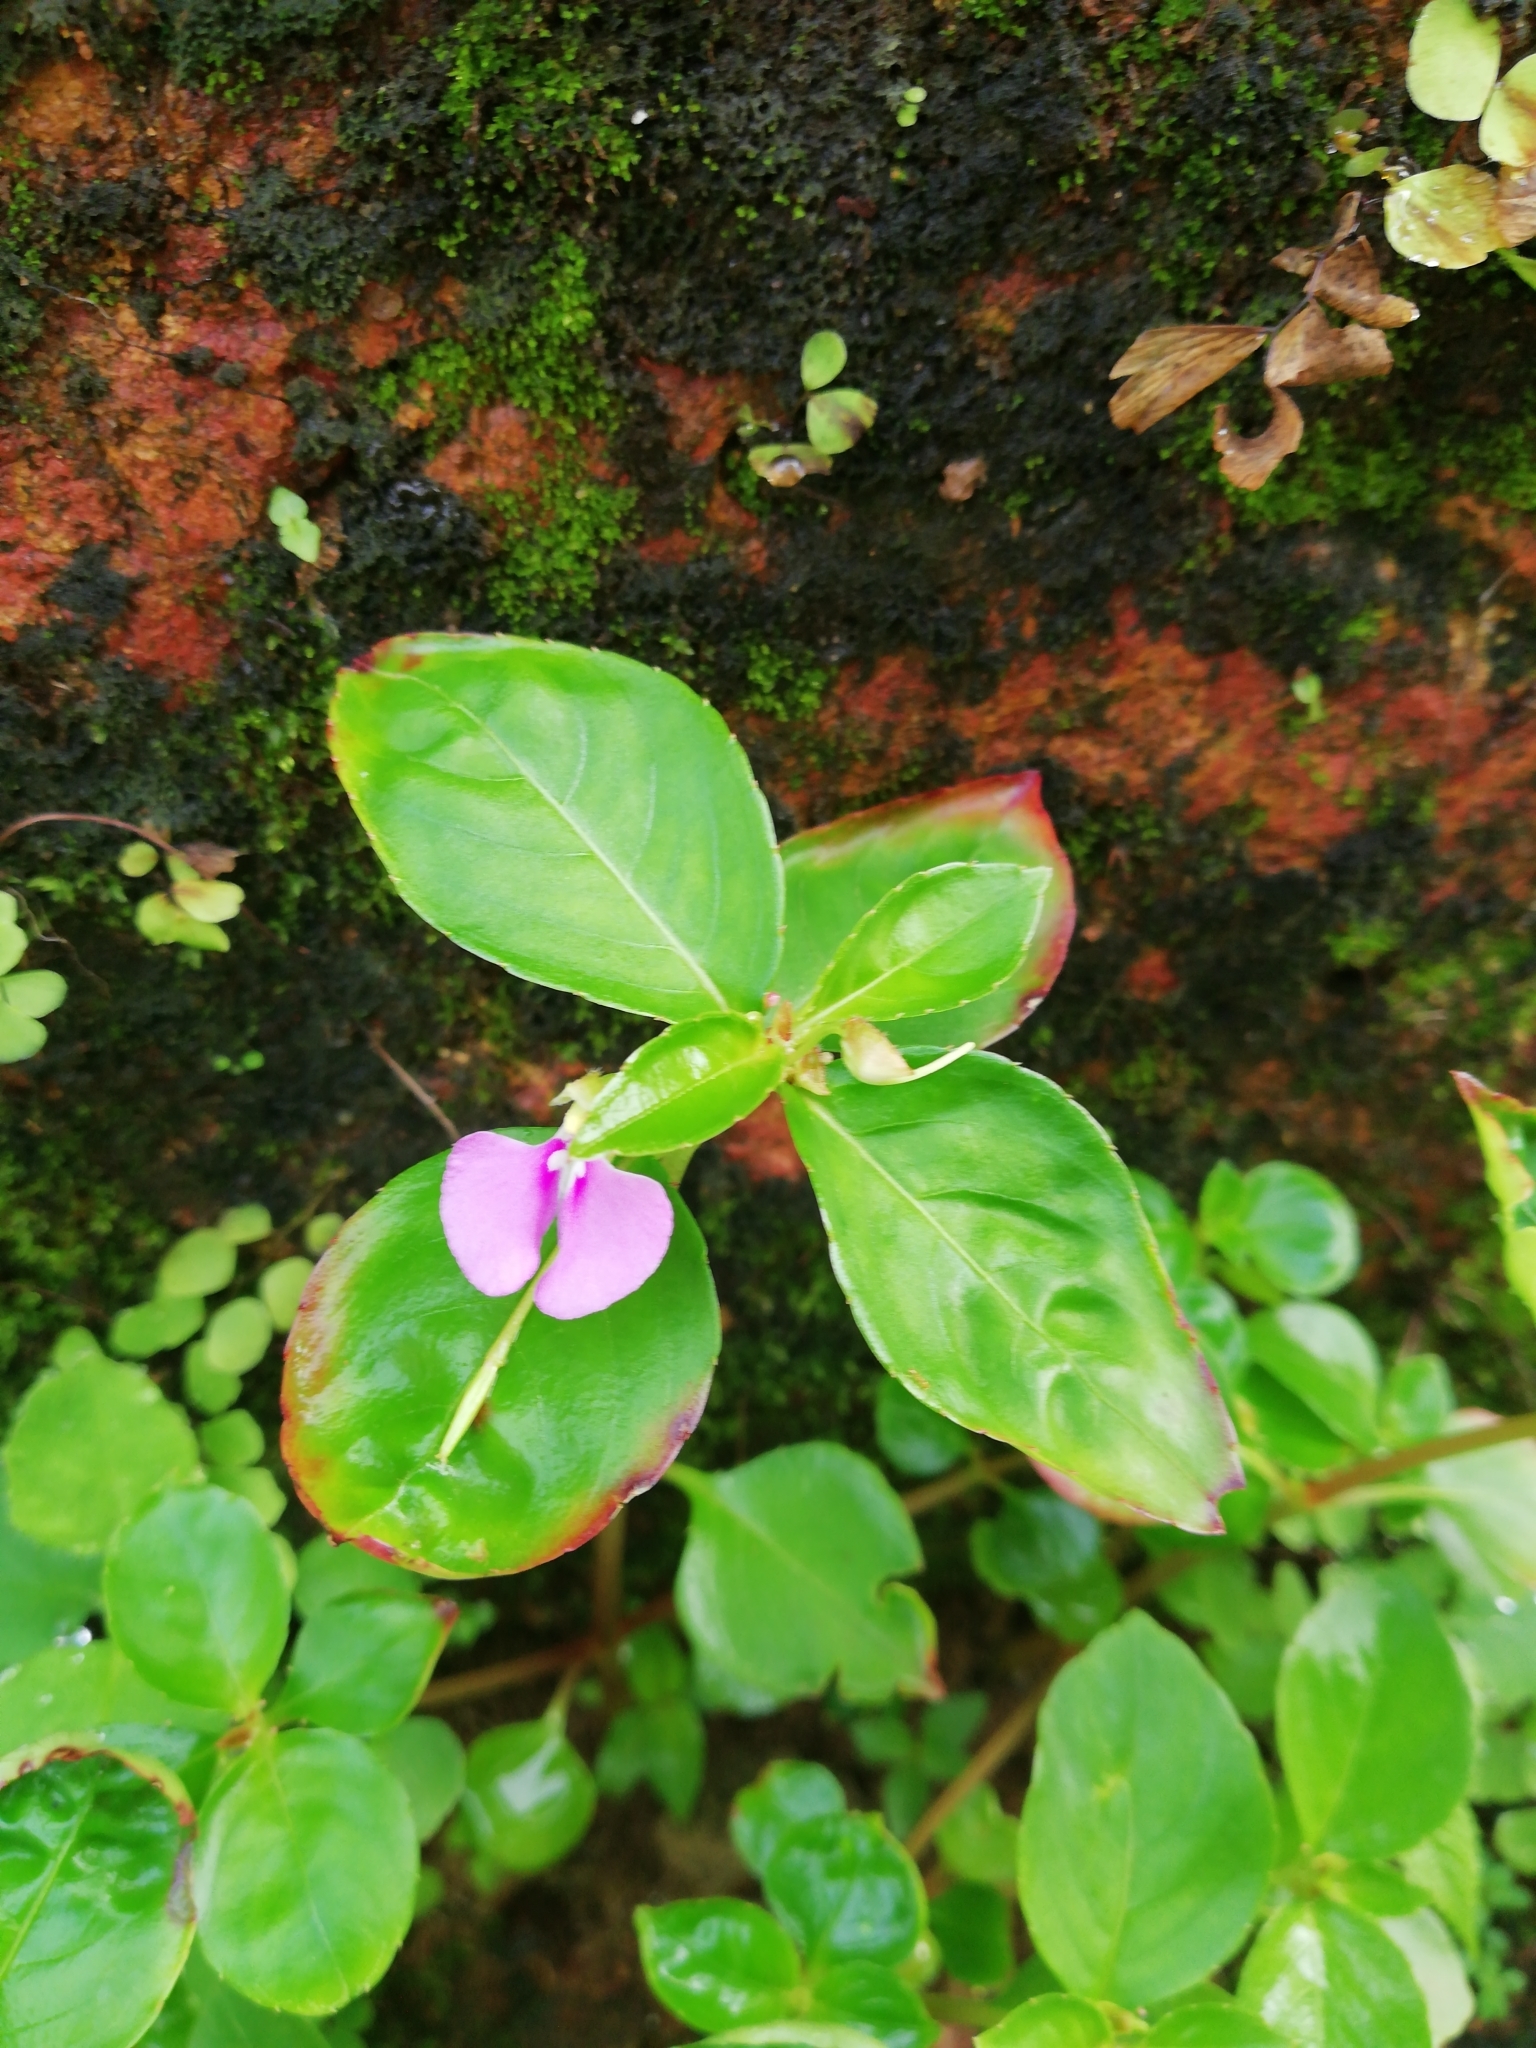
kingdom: Plantae
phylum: Tracheophyta
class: Magnoliopsida
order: Ericales
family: Balsaminaceae
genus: Impatiens
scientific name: Impatiens minor
